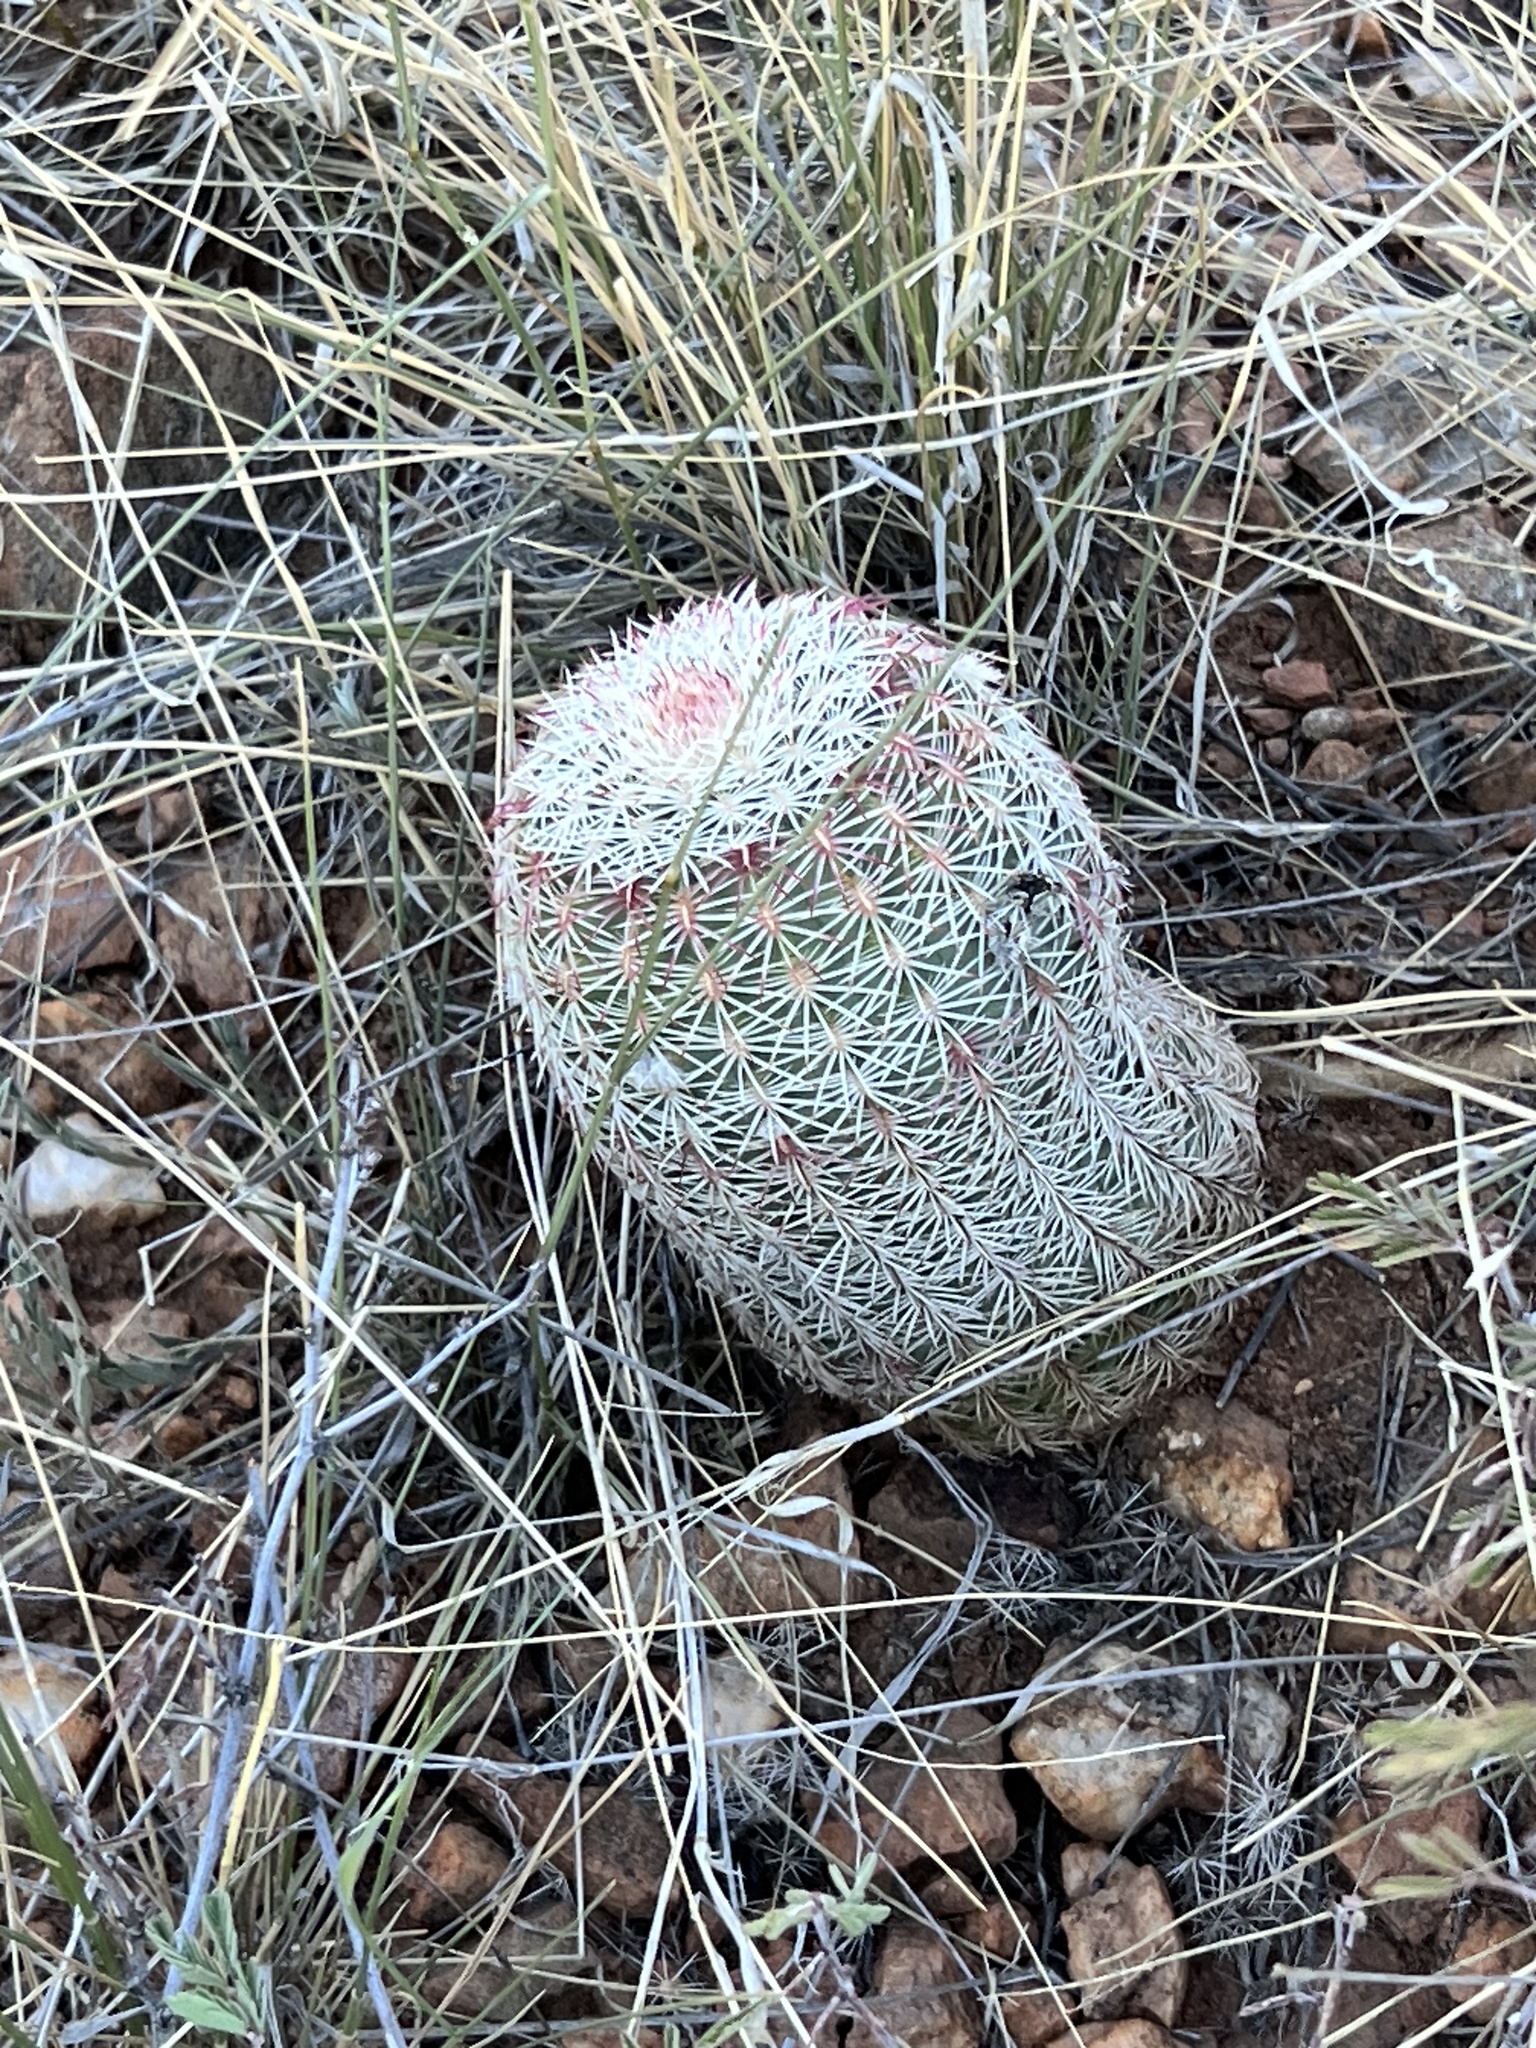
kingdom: Plantae
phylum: Tracheophyta
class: Magnoliopsida
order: Caryophyllales
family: Cactaceae
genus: Echinocereus
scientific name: Echinocereus rigidissimus
